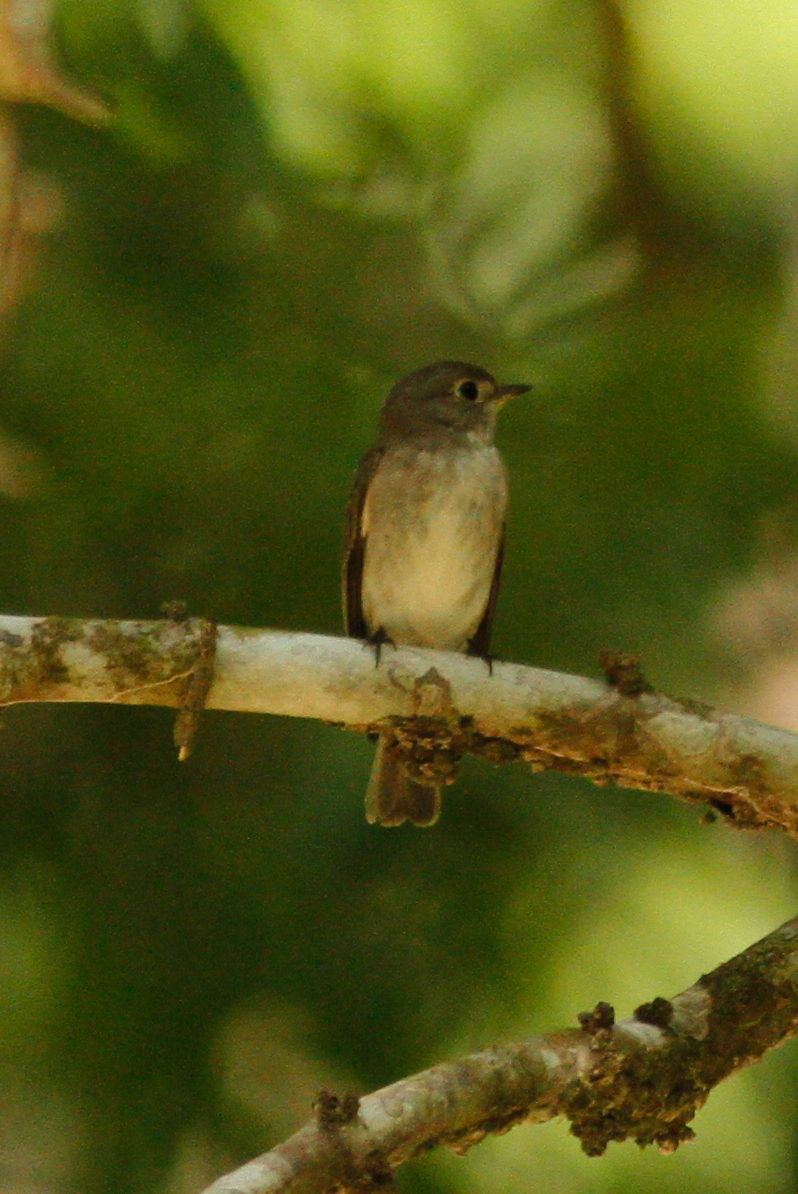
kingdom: Animalia
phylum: Chordata
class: Aves
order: Passeriformes
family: Muscicapidae
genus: Muscicapa
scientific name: Muscicapa latirostris
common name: Asian brown flycatcher
